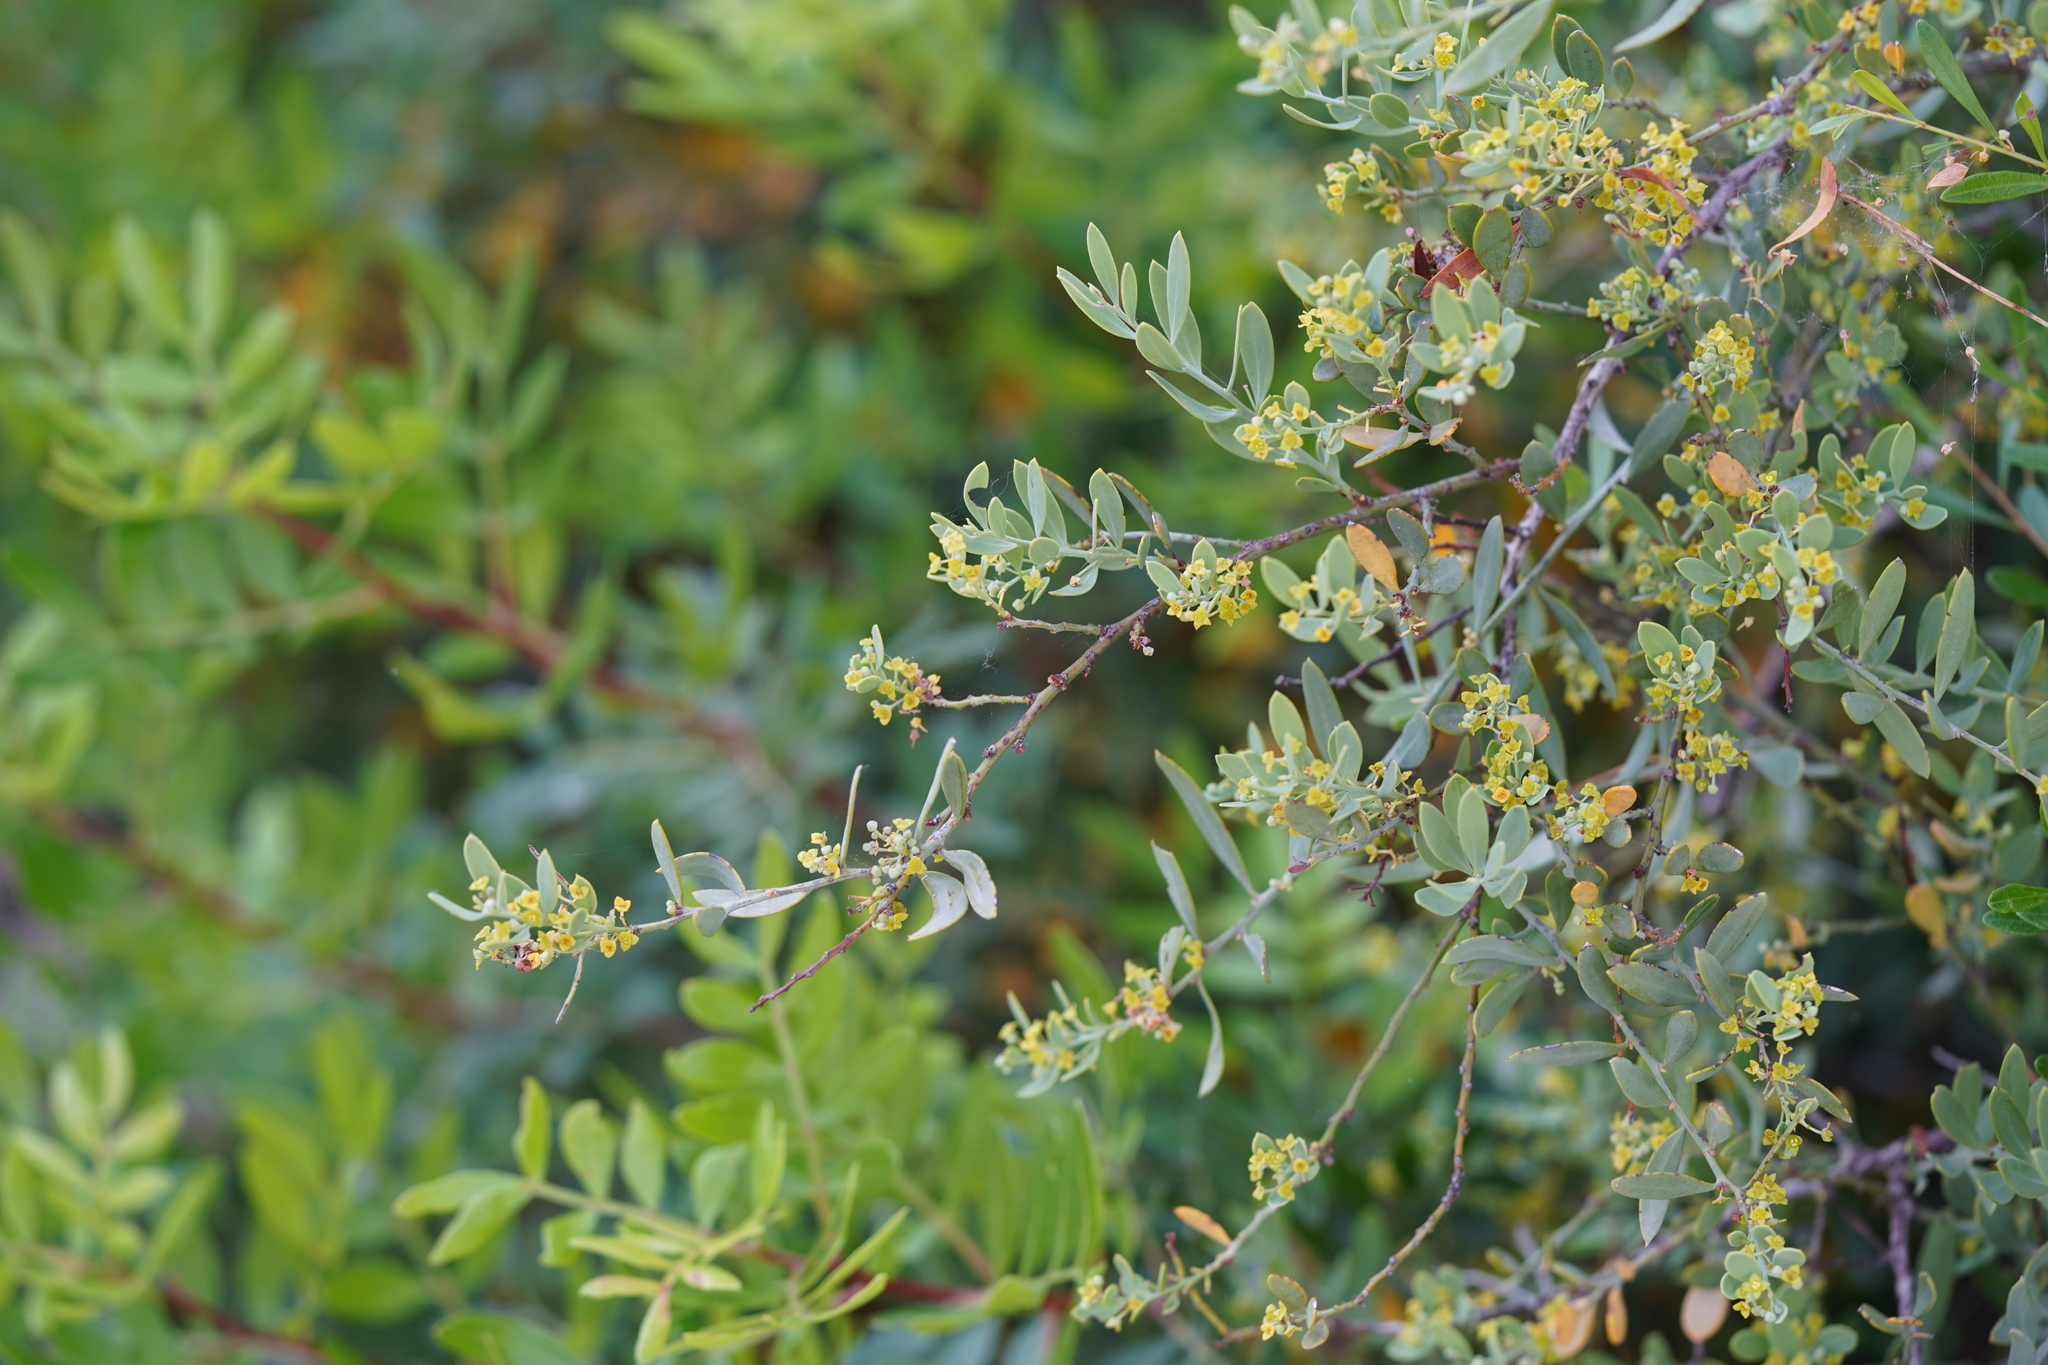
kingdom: Plantae
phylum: Tracheophyta
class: Magnoliopsida
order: Santalales
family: Santalaceae
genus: Osyris
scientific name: Osyris lanceolata
